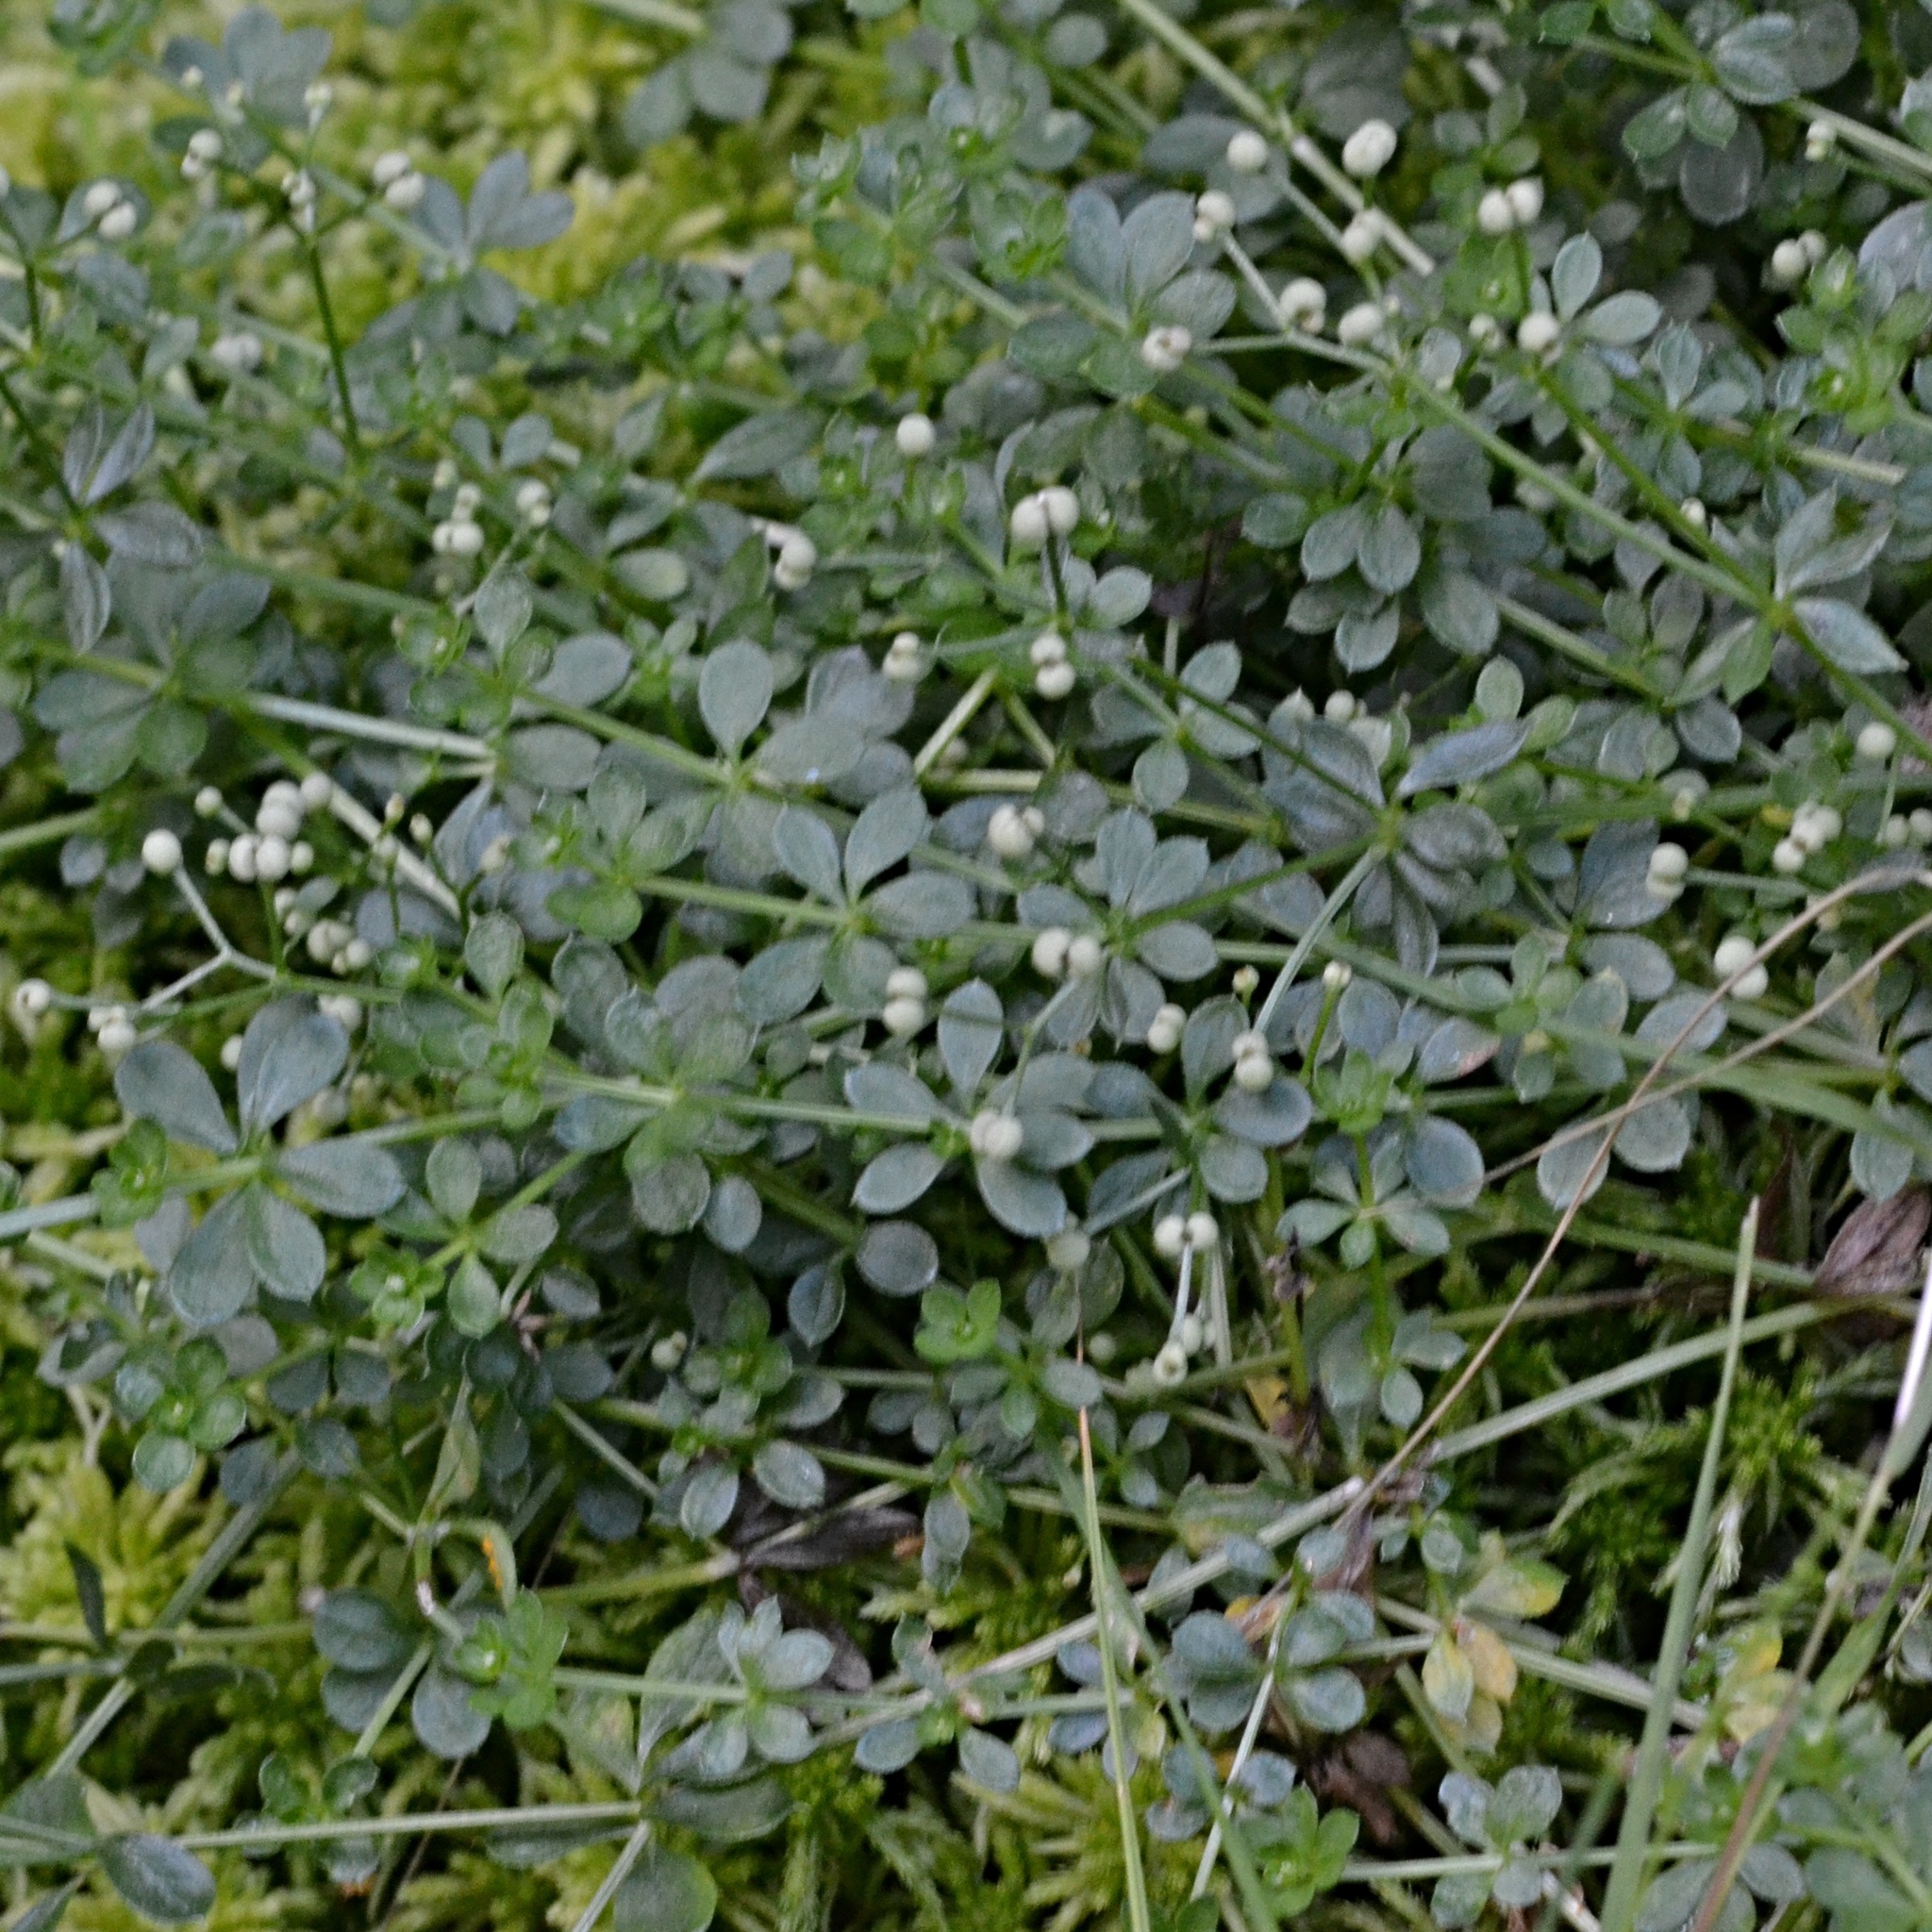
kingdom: Plantae
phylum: Tracheophyta
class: Magnoliopsida
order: Gentianales
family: Rubiaceae
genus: Galium
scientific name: Galium saxatile
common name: Heath bedstraw
